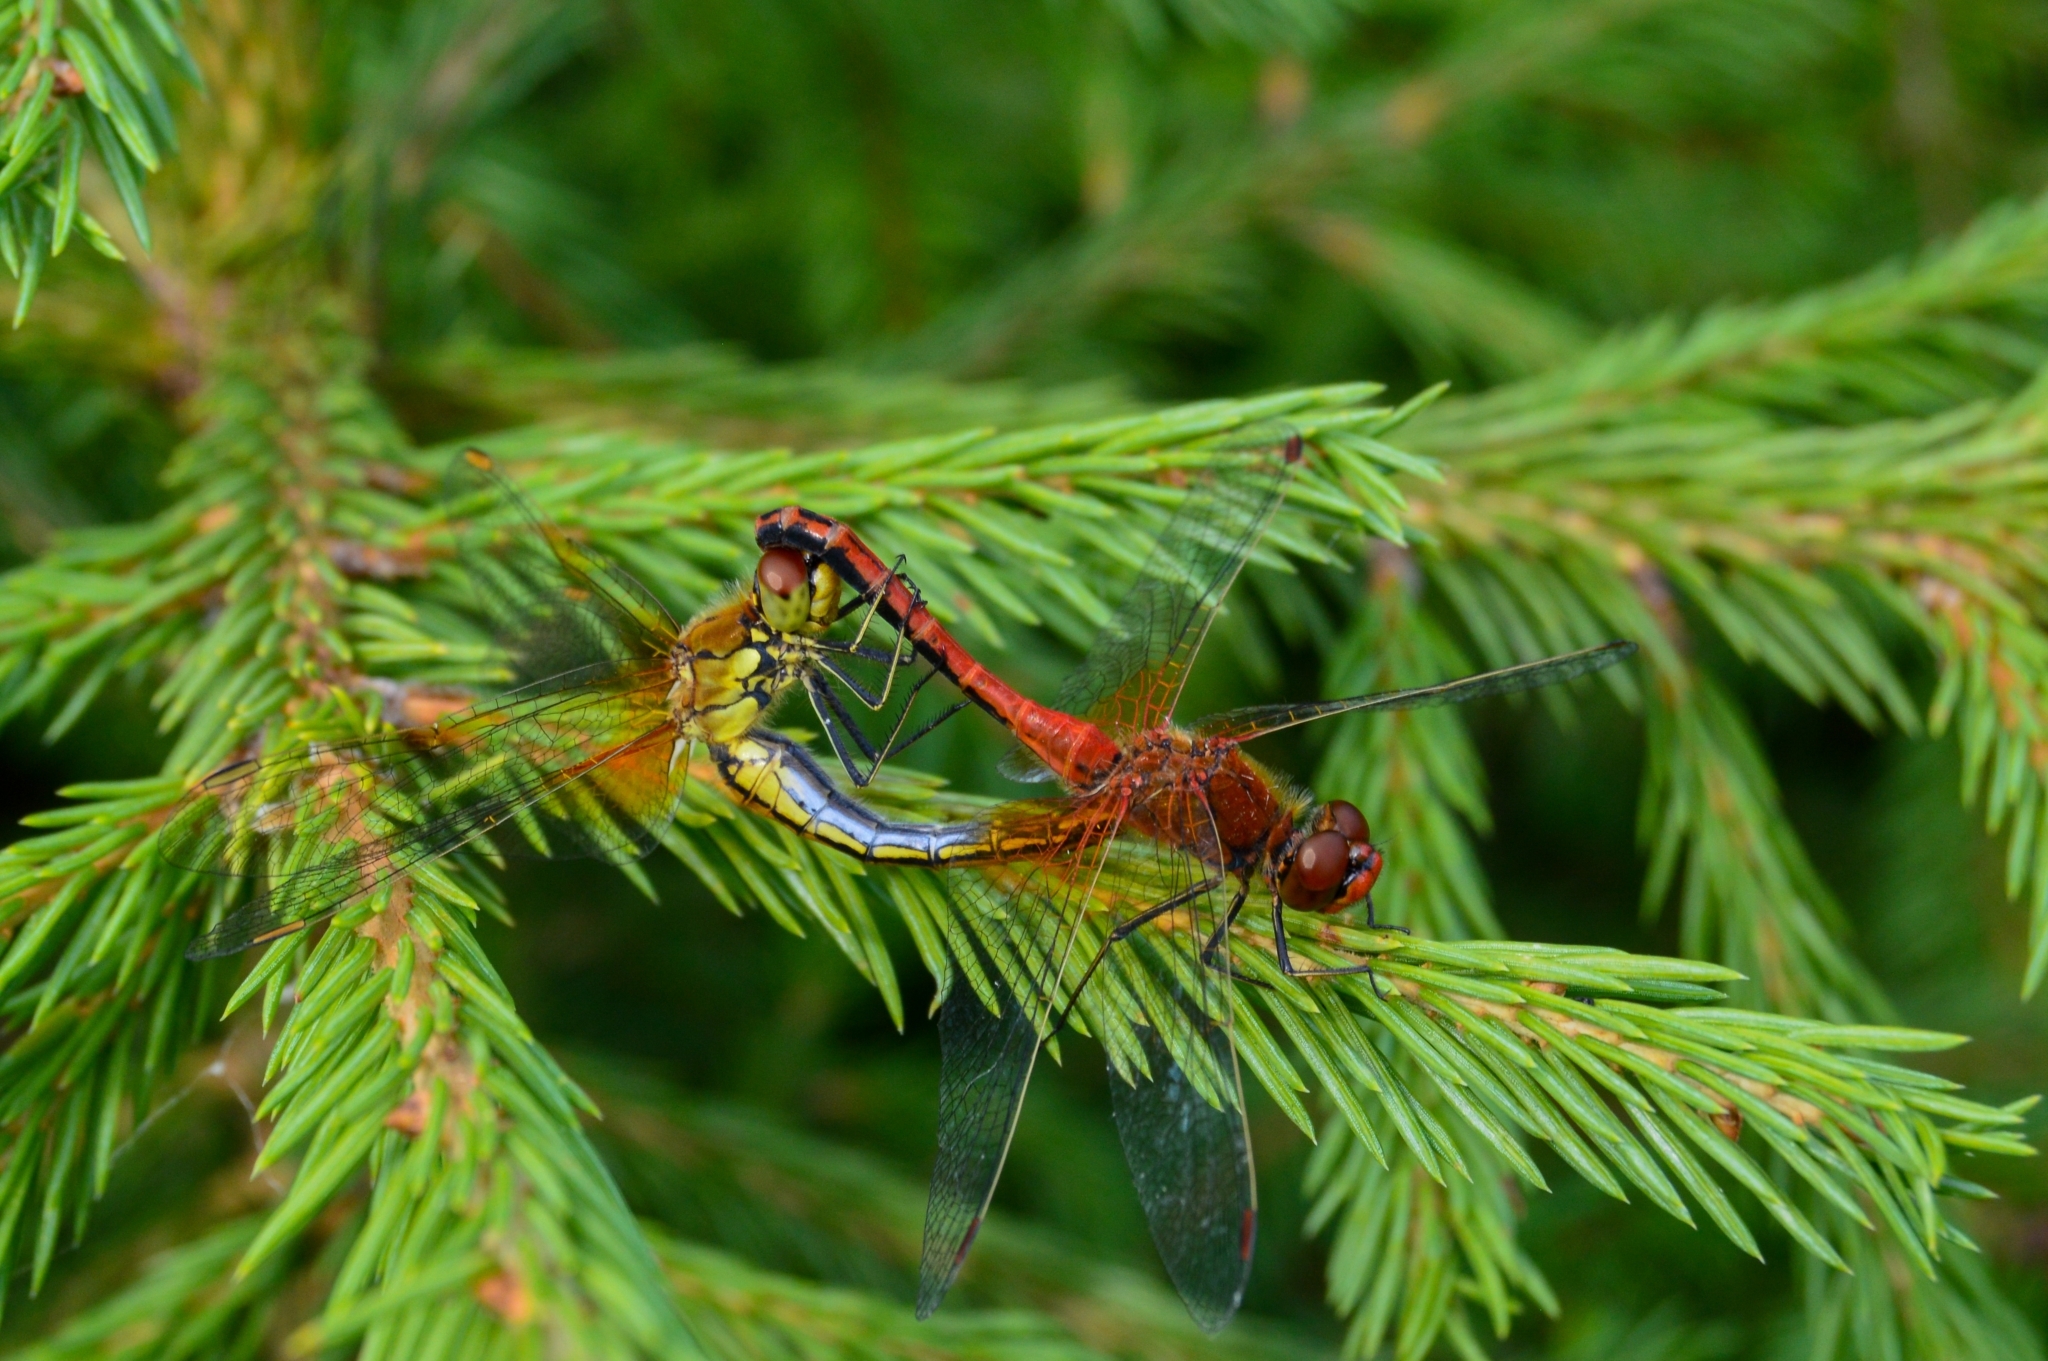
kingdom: Animalia
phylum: Arthropoda
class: Insecta
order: Odonata
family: Libellulidae
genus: Sympetrum
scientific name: Sympetrum flaveolum
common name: Yellow-winged darter
